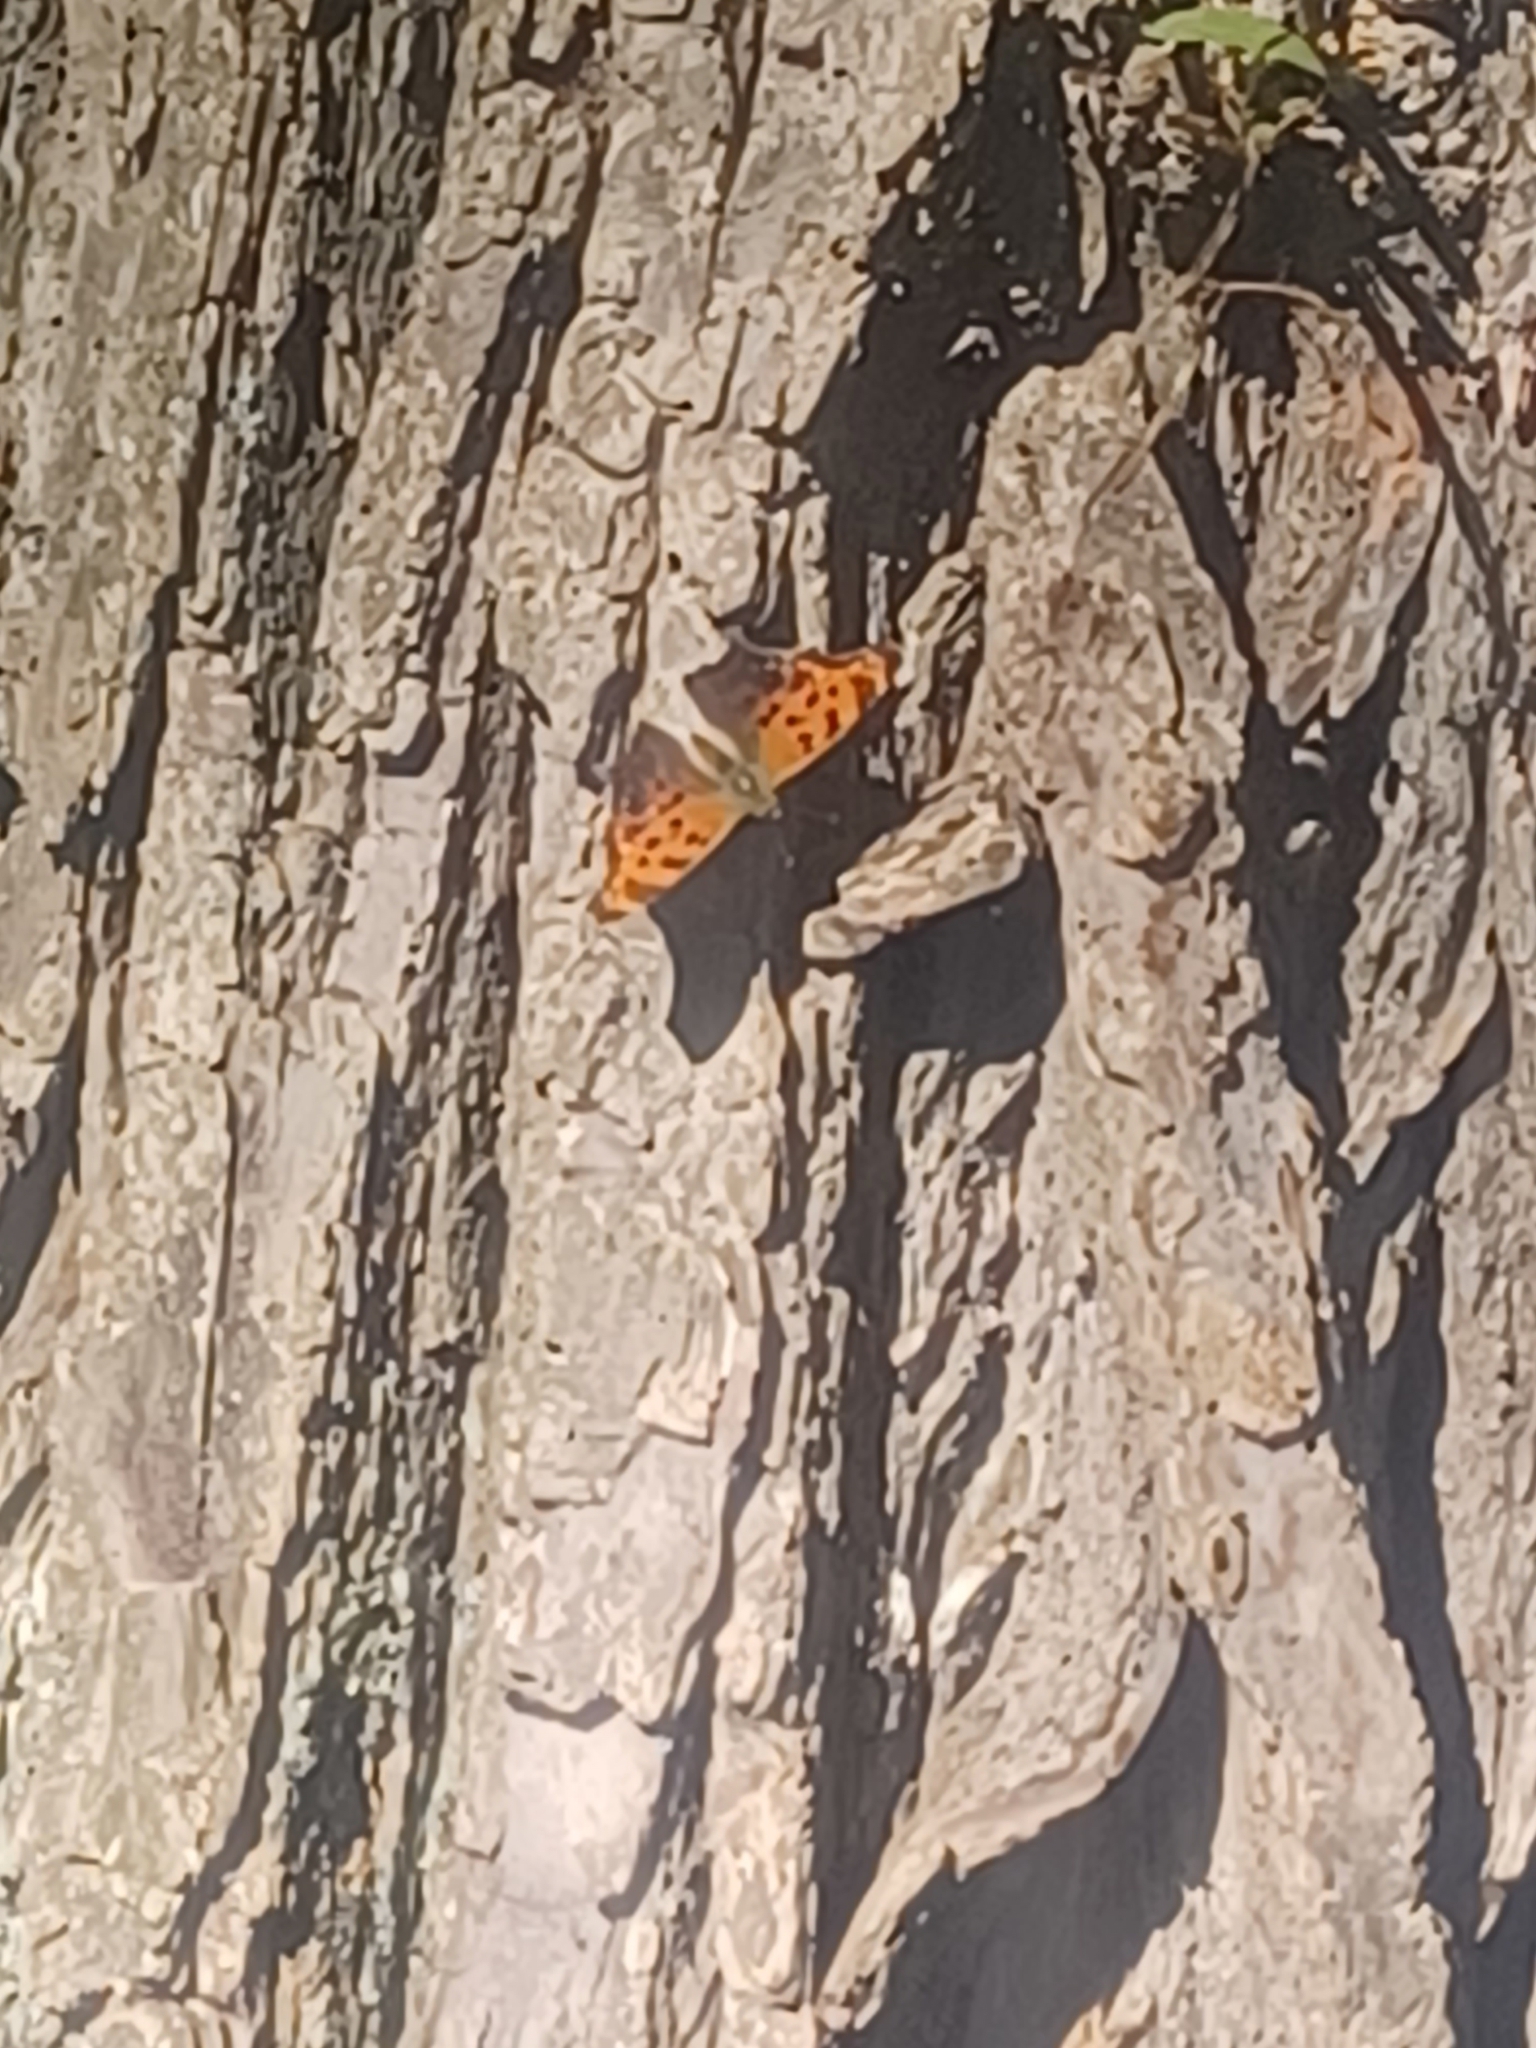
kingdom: Animalia
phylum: Arthropoda
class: Insecta
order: Lepidoptera
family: Nymphalidae
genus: Polygonia
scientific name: Polygonia comma
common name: Eastern comma
